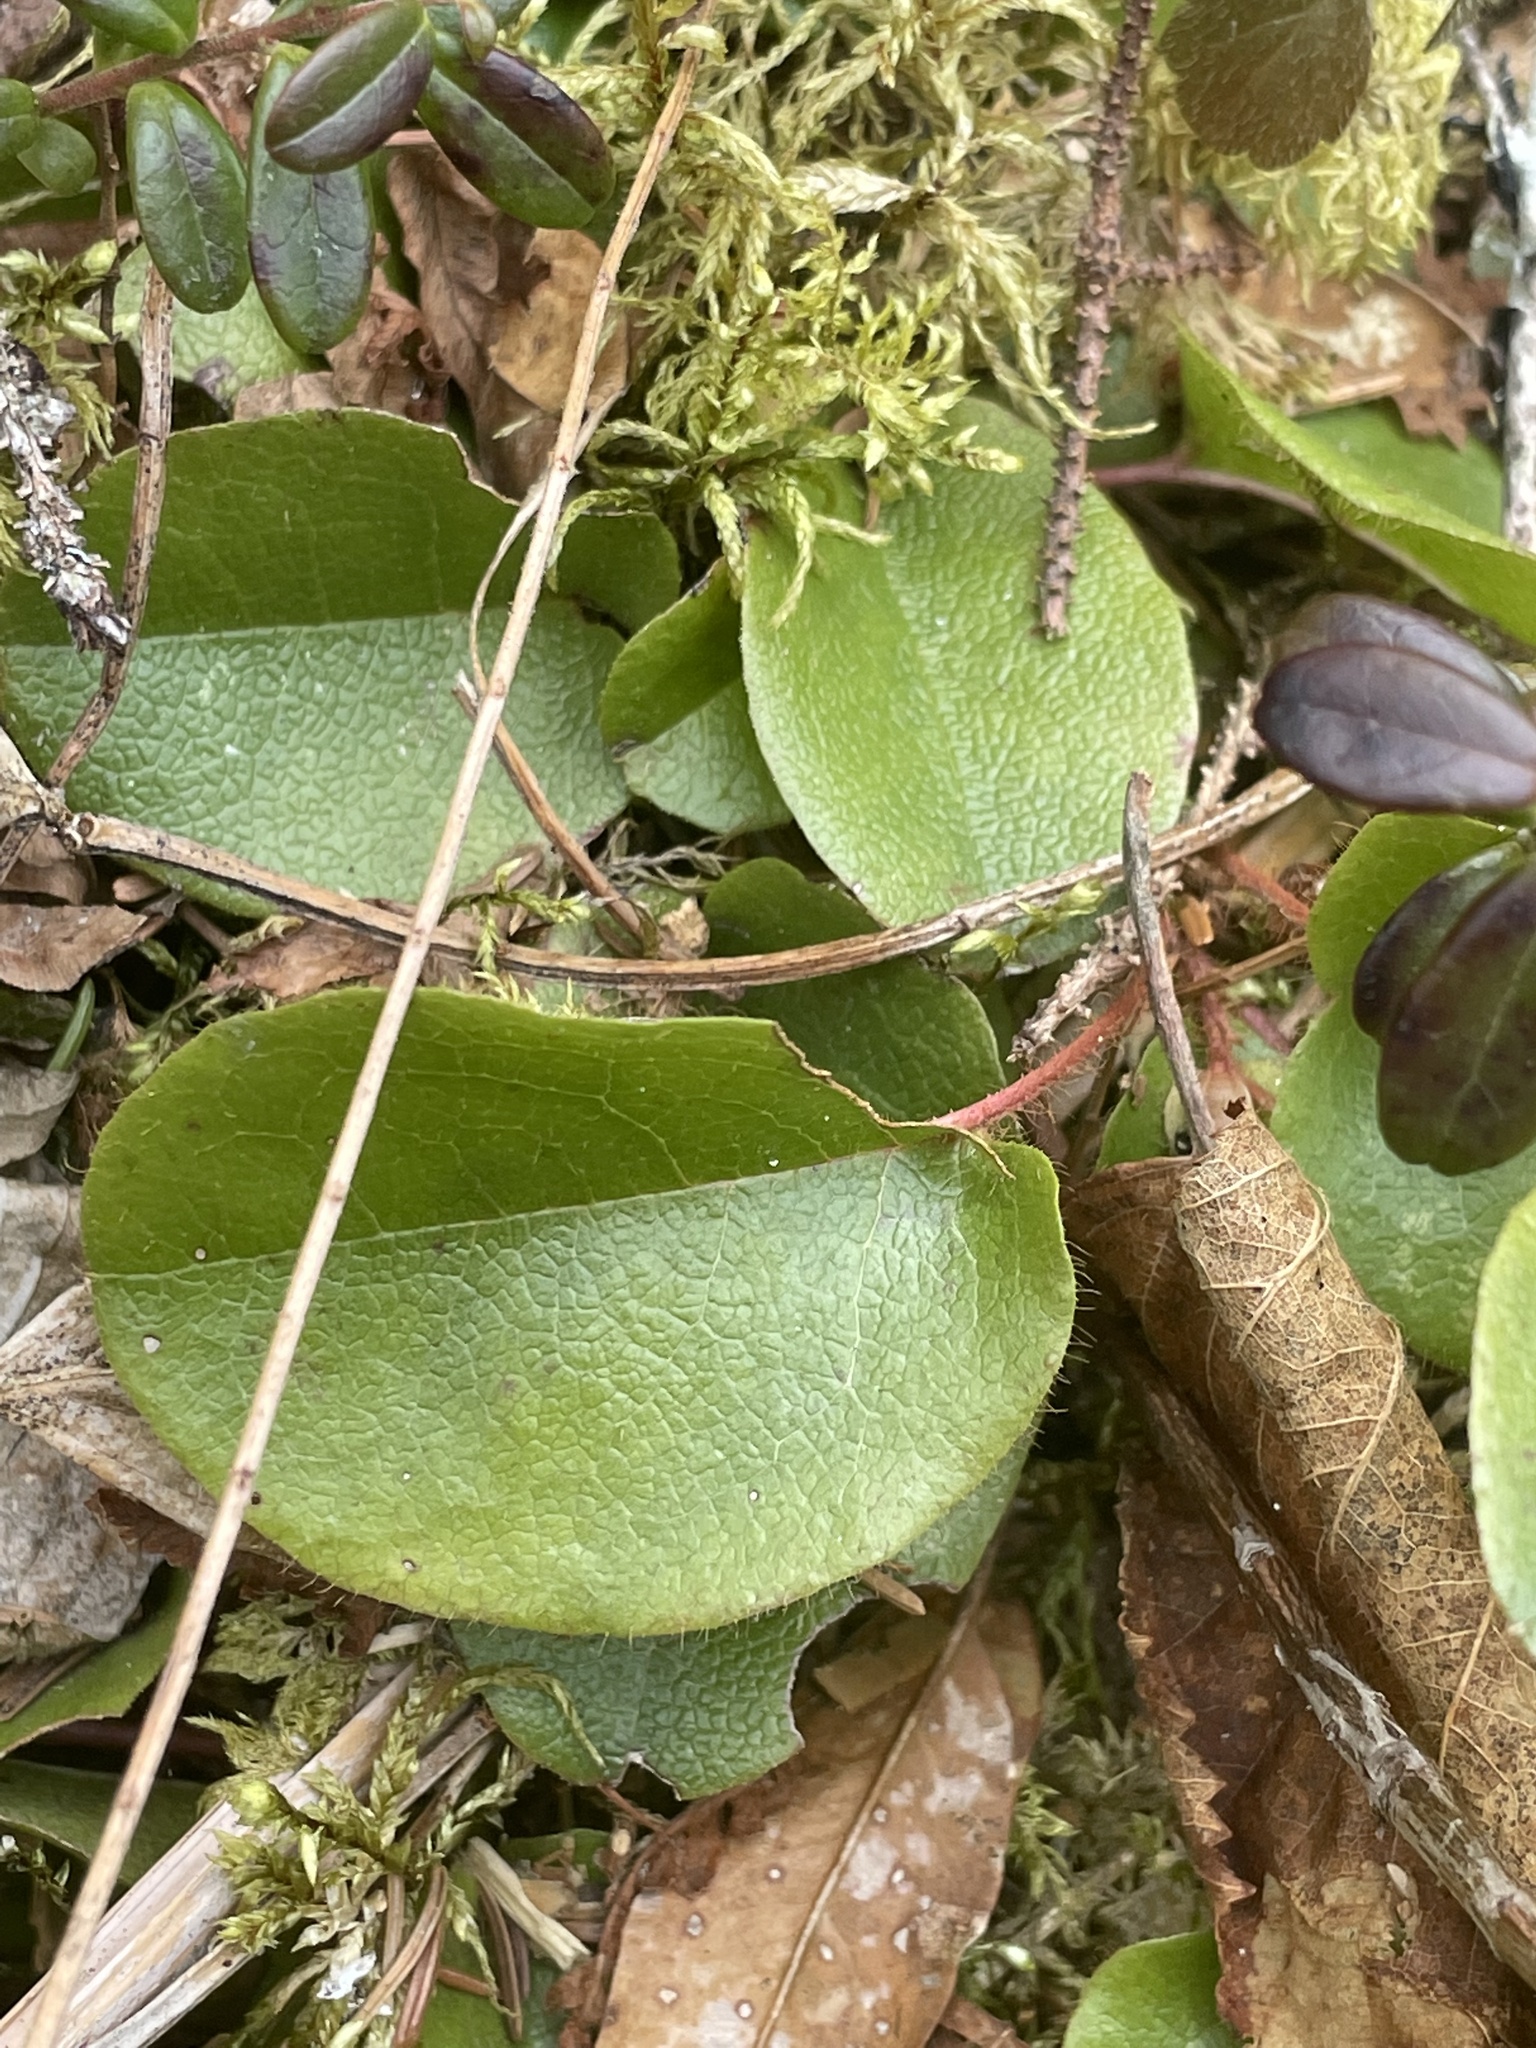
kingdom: Plantae
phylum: Tracheophyta
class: Magnoliopsida
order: Ericales
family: Ericaceae
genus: Epigaea
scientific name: Epigaea repens
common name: Gravelroot
